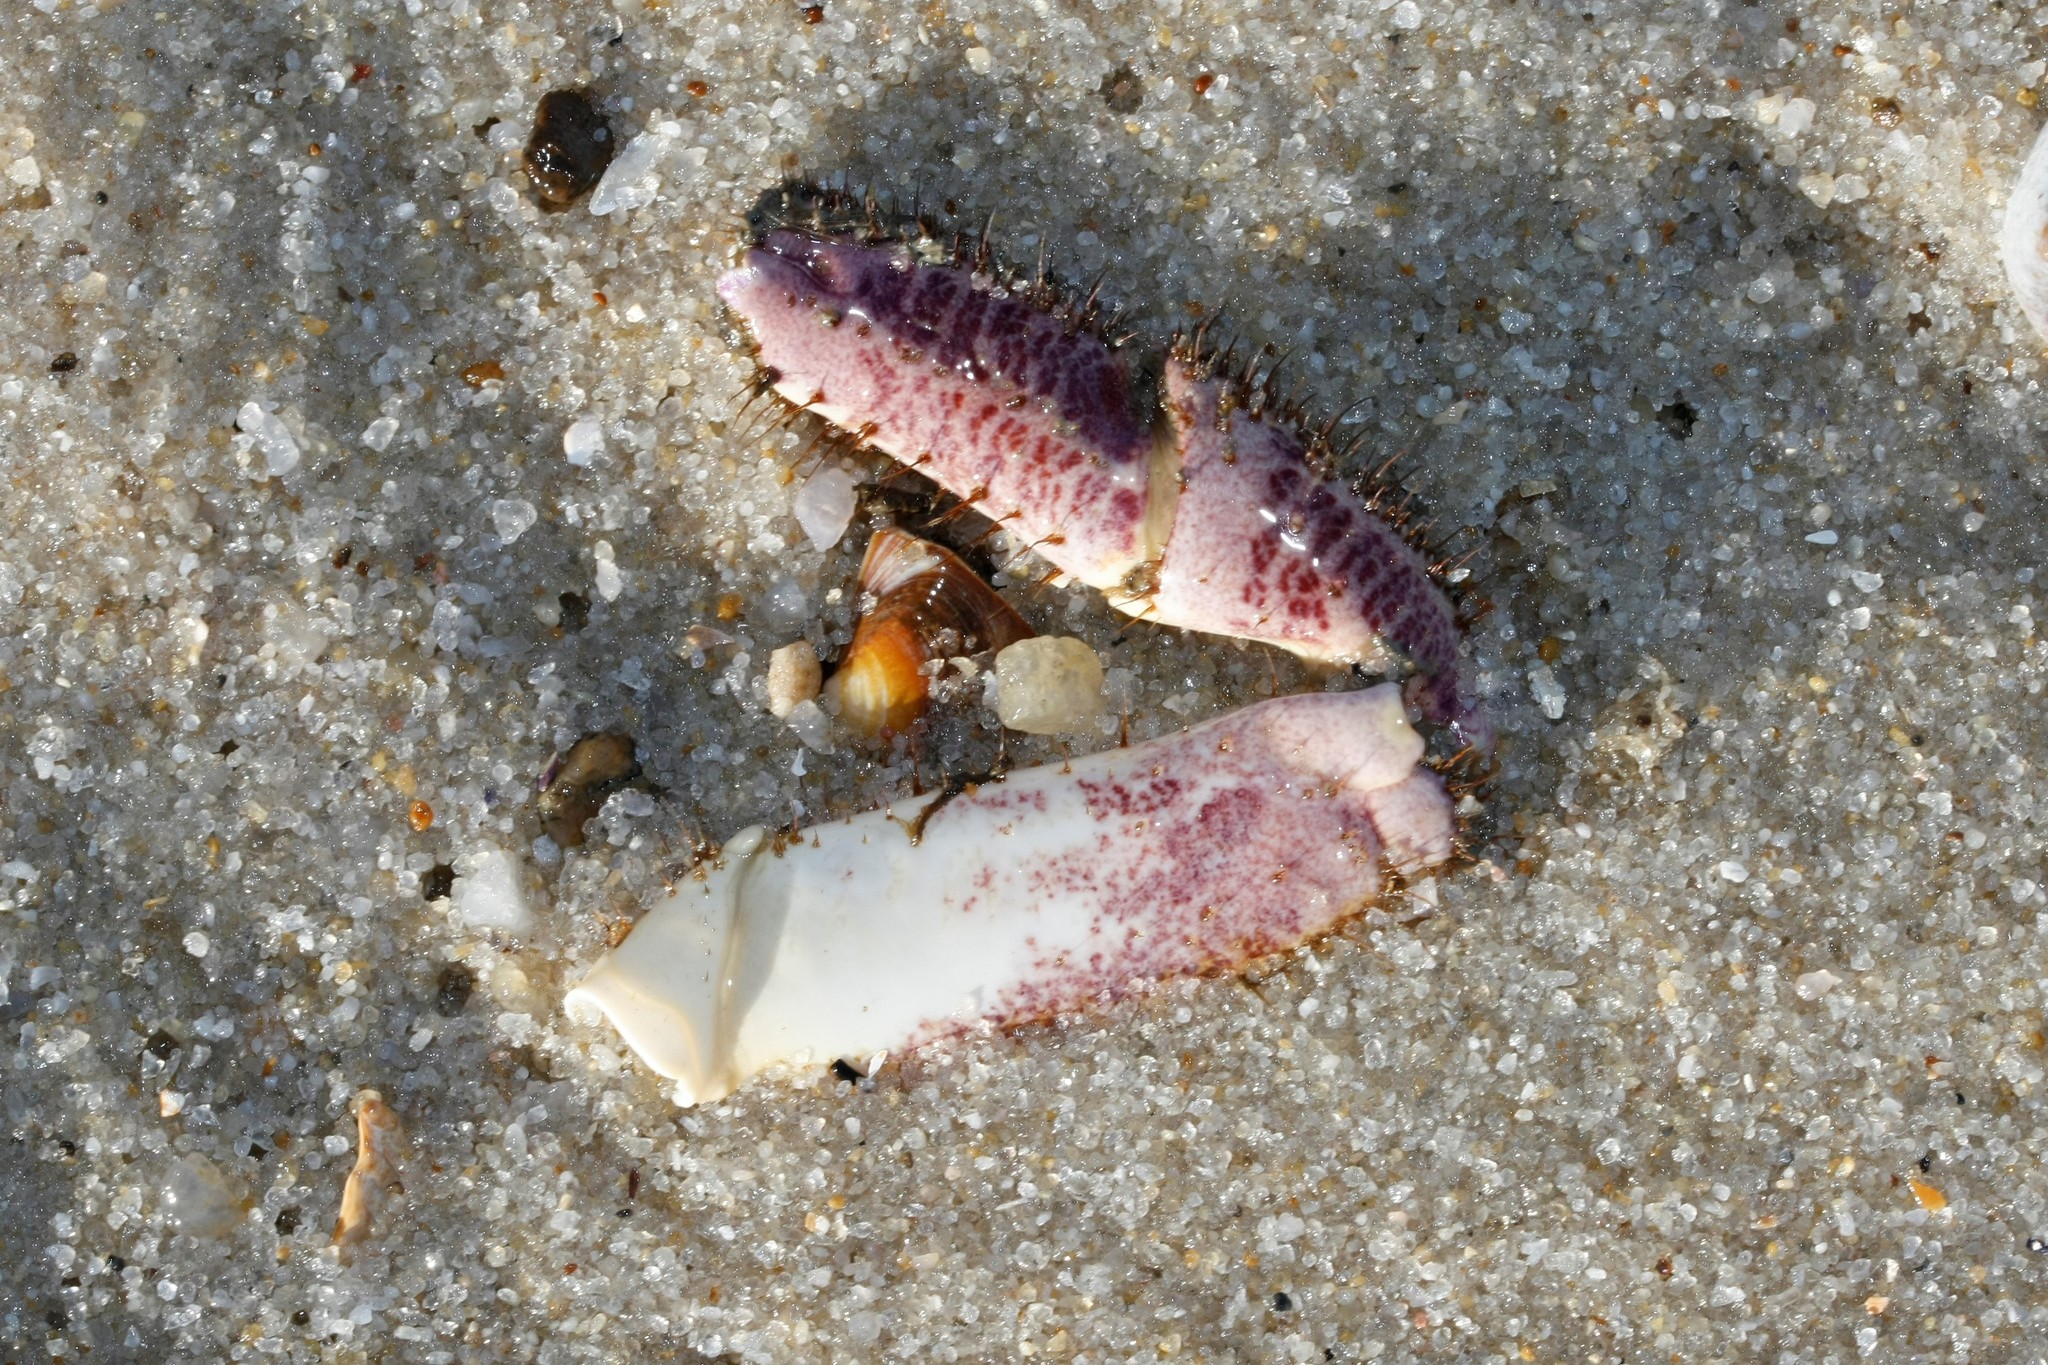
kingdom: Animalia
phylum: Arthropoda
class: Malacostraca
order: Decapoda
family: Cancridae
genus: Cancer
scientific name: Cancer pagurus
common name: Edible crab
